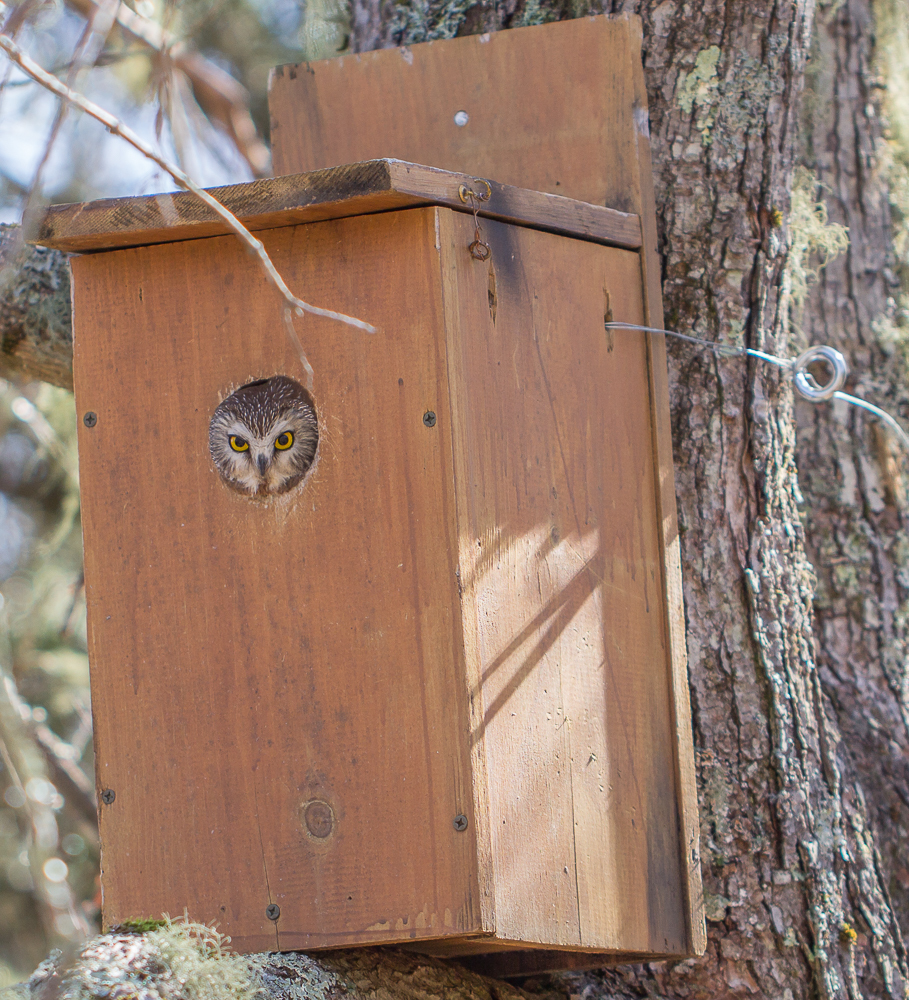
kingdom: Animalia
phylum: Chordata
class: Aves
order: Strigiformes
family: Strigidae
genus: Aegolius
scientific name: Aegolius acadicus
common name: Northern saw-whet owl
